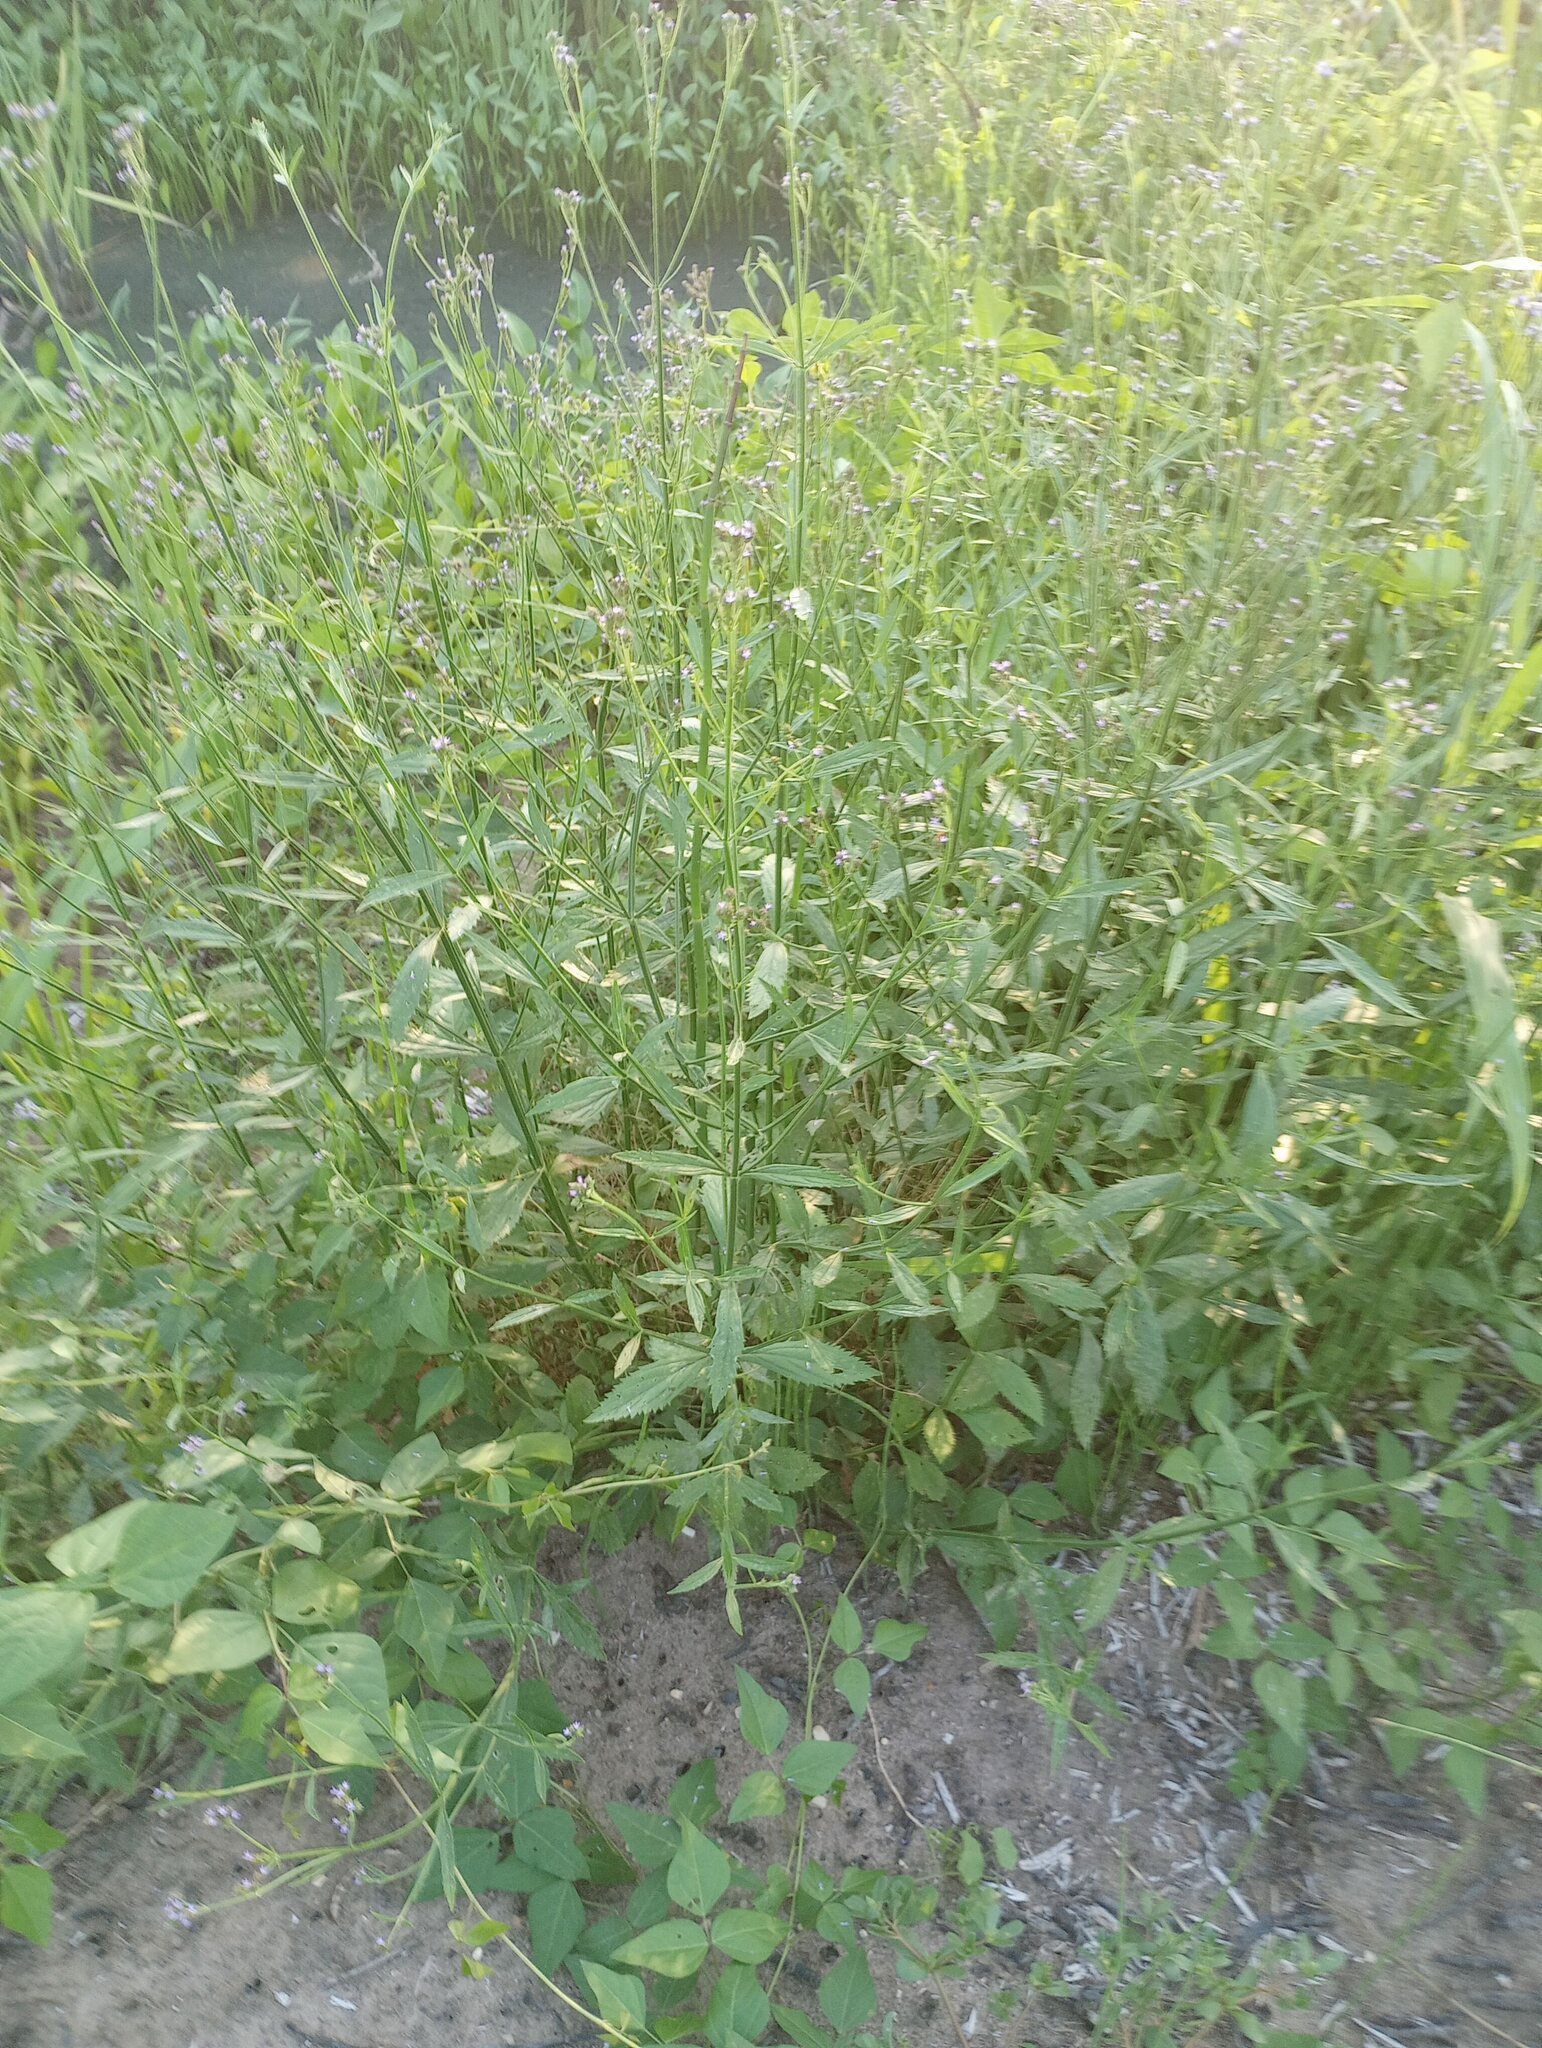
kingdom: Plantae
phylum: Tracheophyta
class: Magnoliopsida
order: Lamiales
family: Verbenaceae
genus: Verbena
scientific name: Verbena brasiliensis
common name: Brazilian vervain
